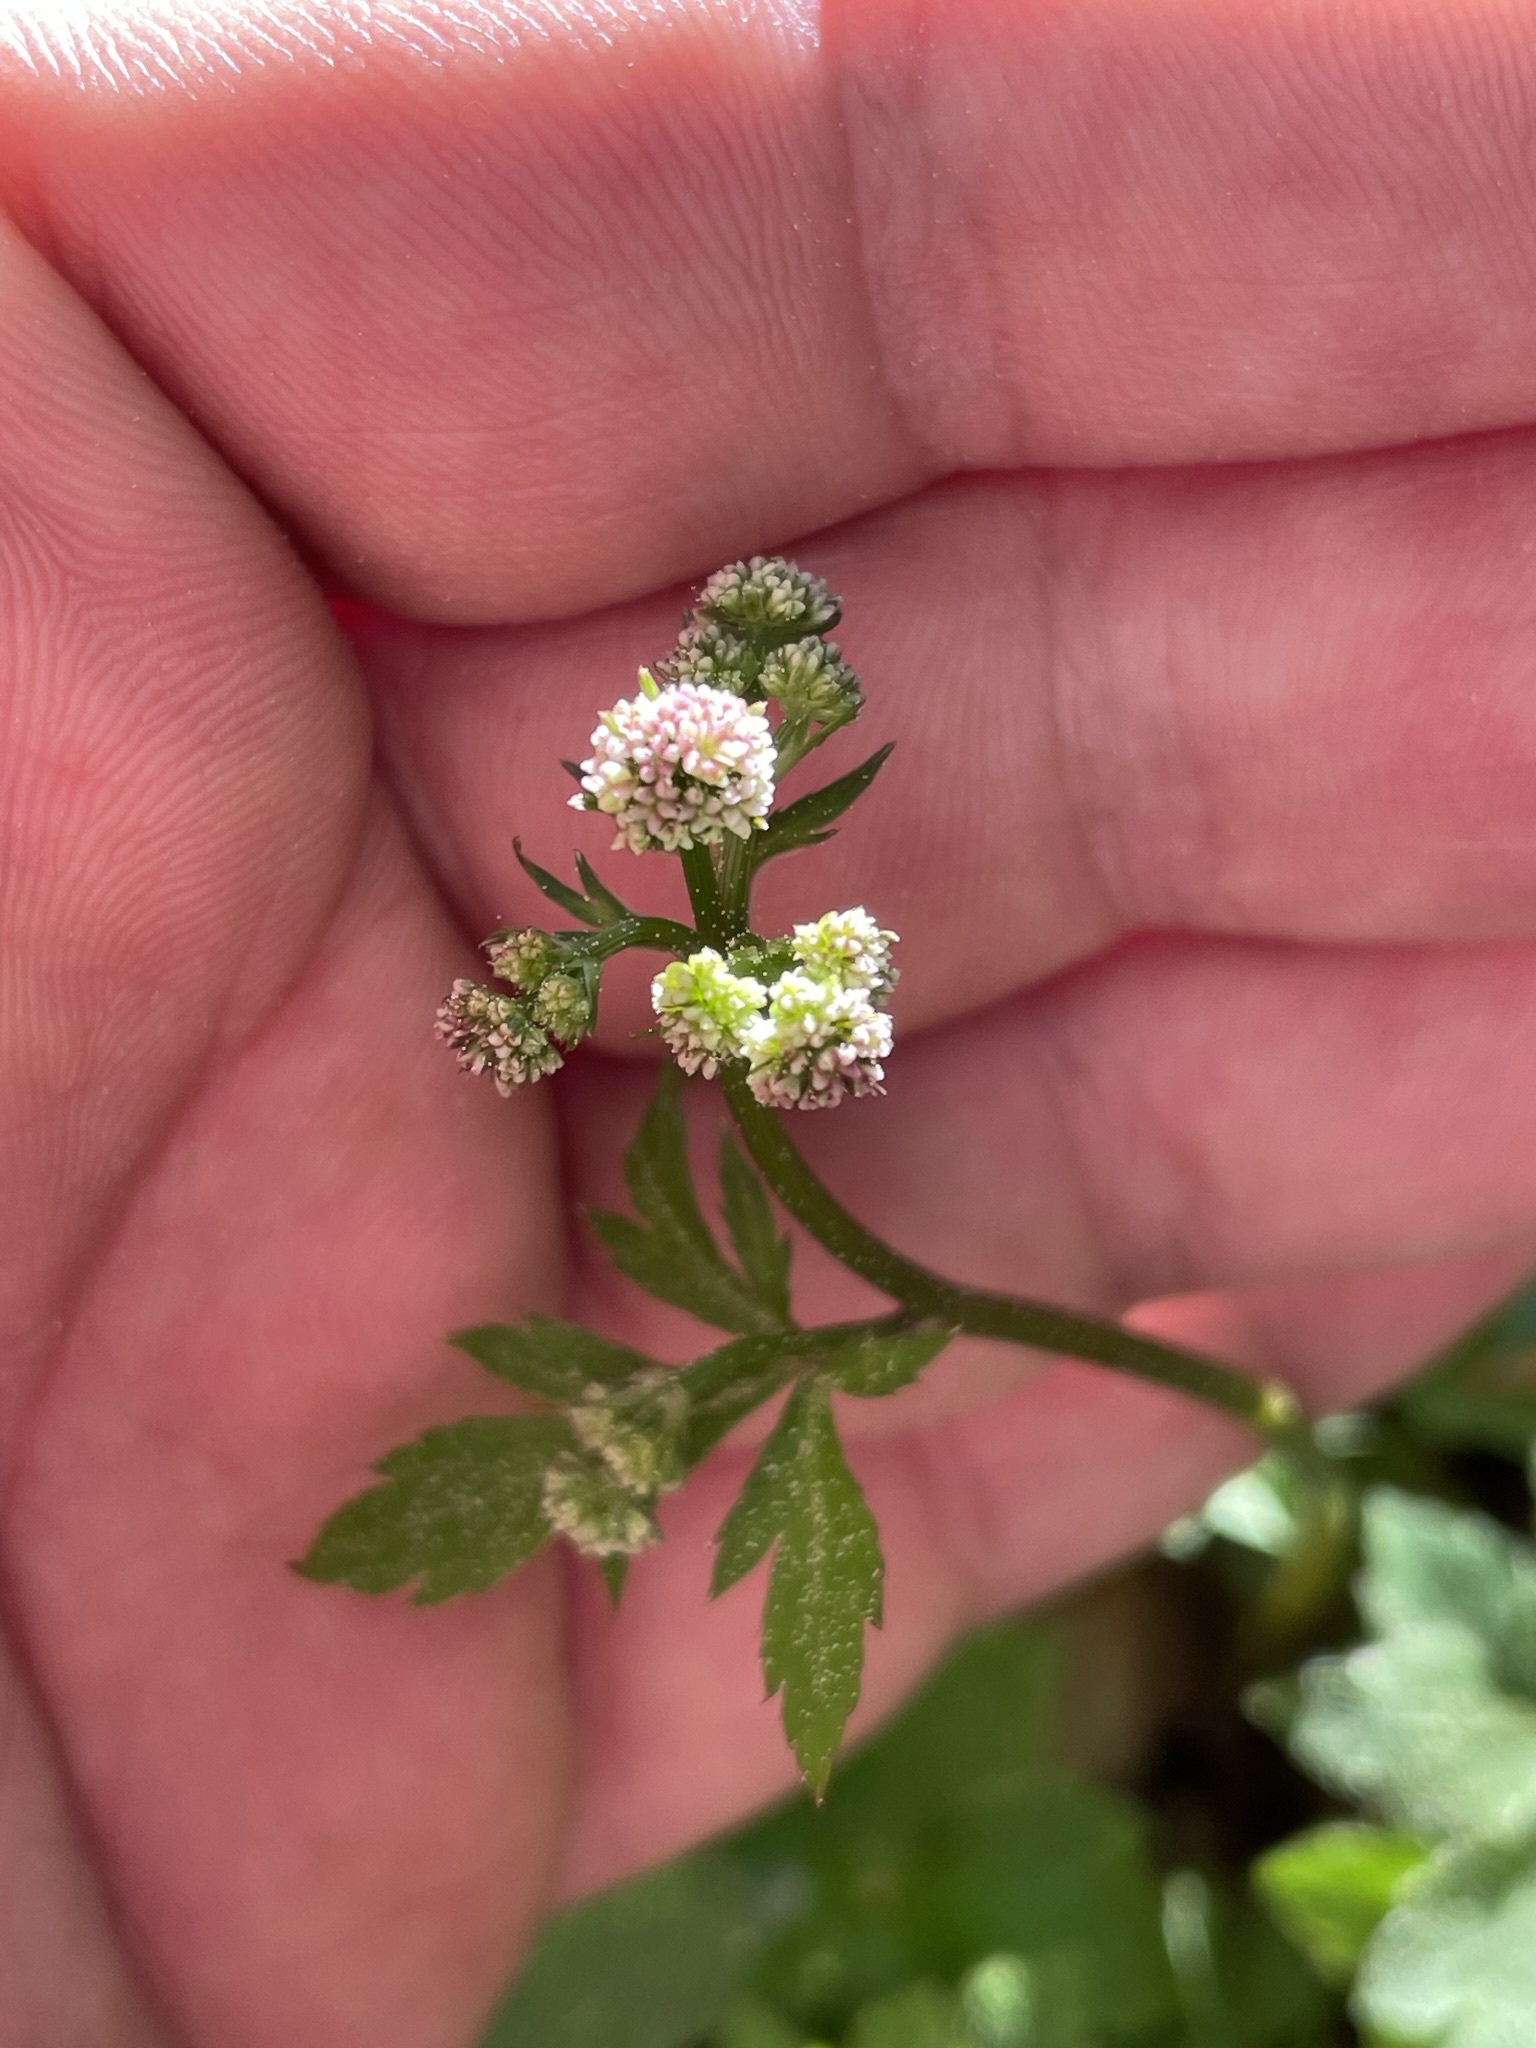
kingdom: Plantae
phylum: Tracheophyta
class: Magnoliopsida
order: Apiales
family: Apiaceae
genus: Sanicula
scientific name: Sanicula europaea
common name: Sanicle
